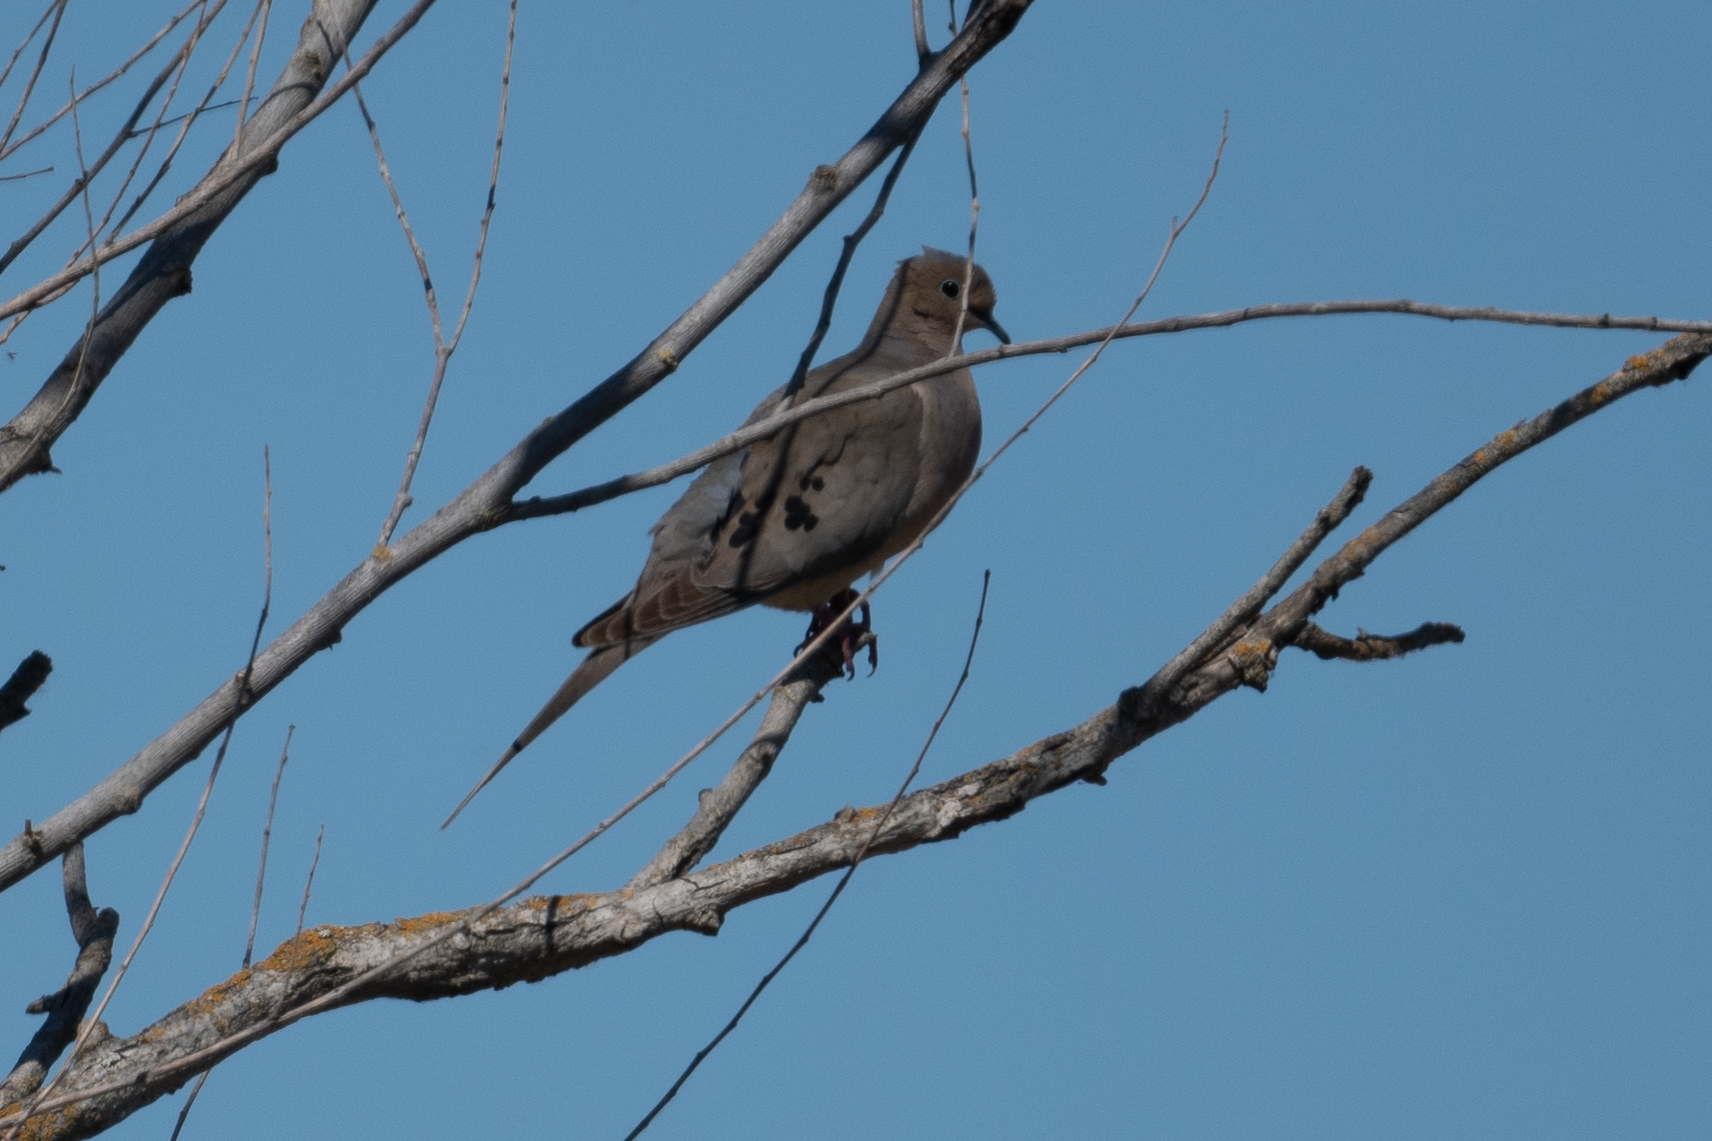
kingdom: Animalia
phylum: Chordata
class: Aves
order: Columbiformes
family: Columbidae
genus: Zenaida
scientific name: Zenaida macroura
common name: Mourning dove
